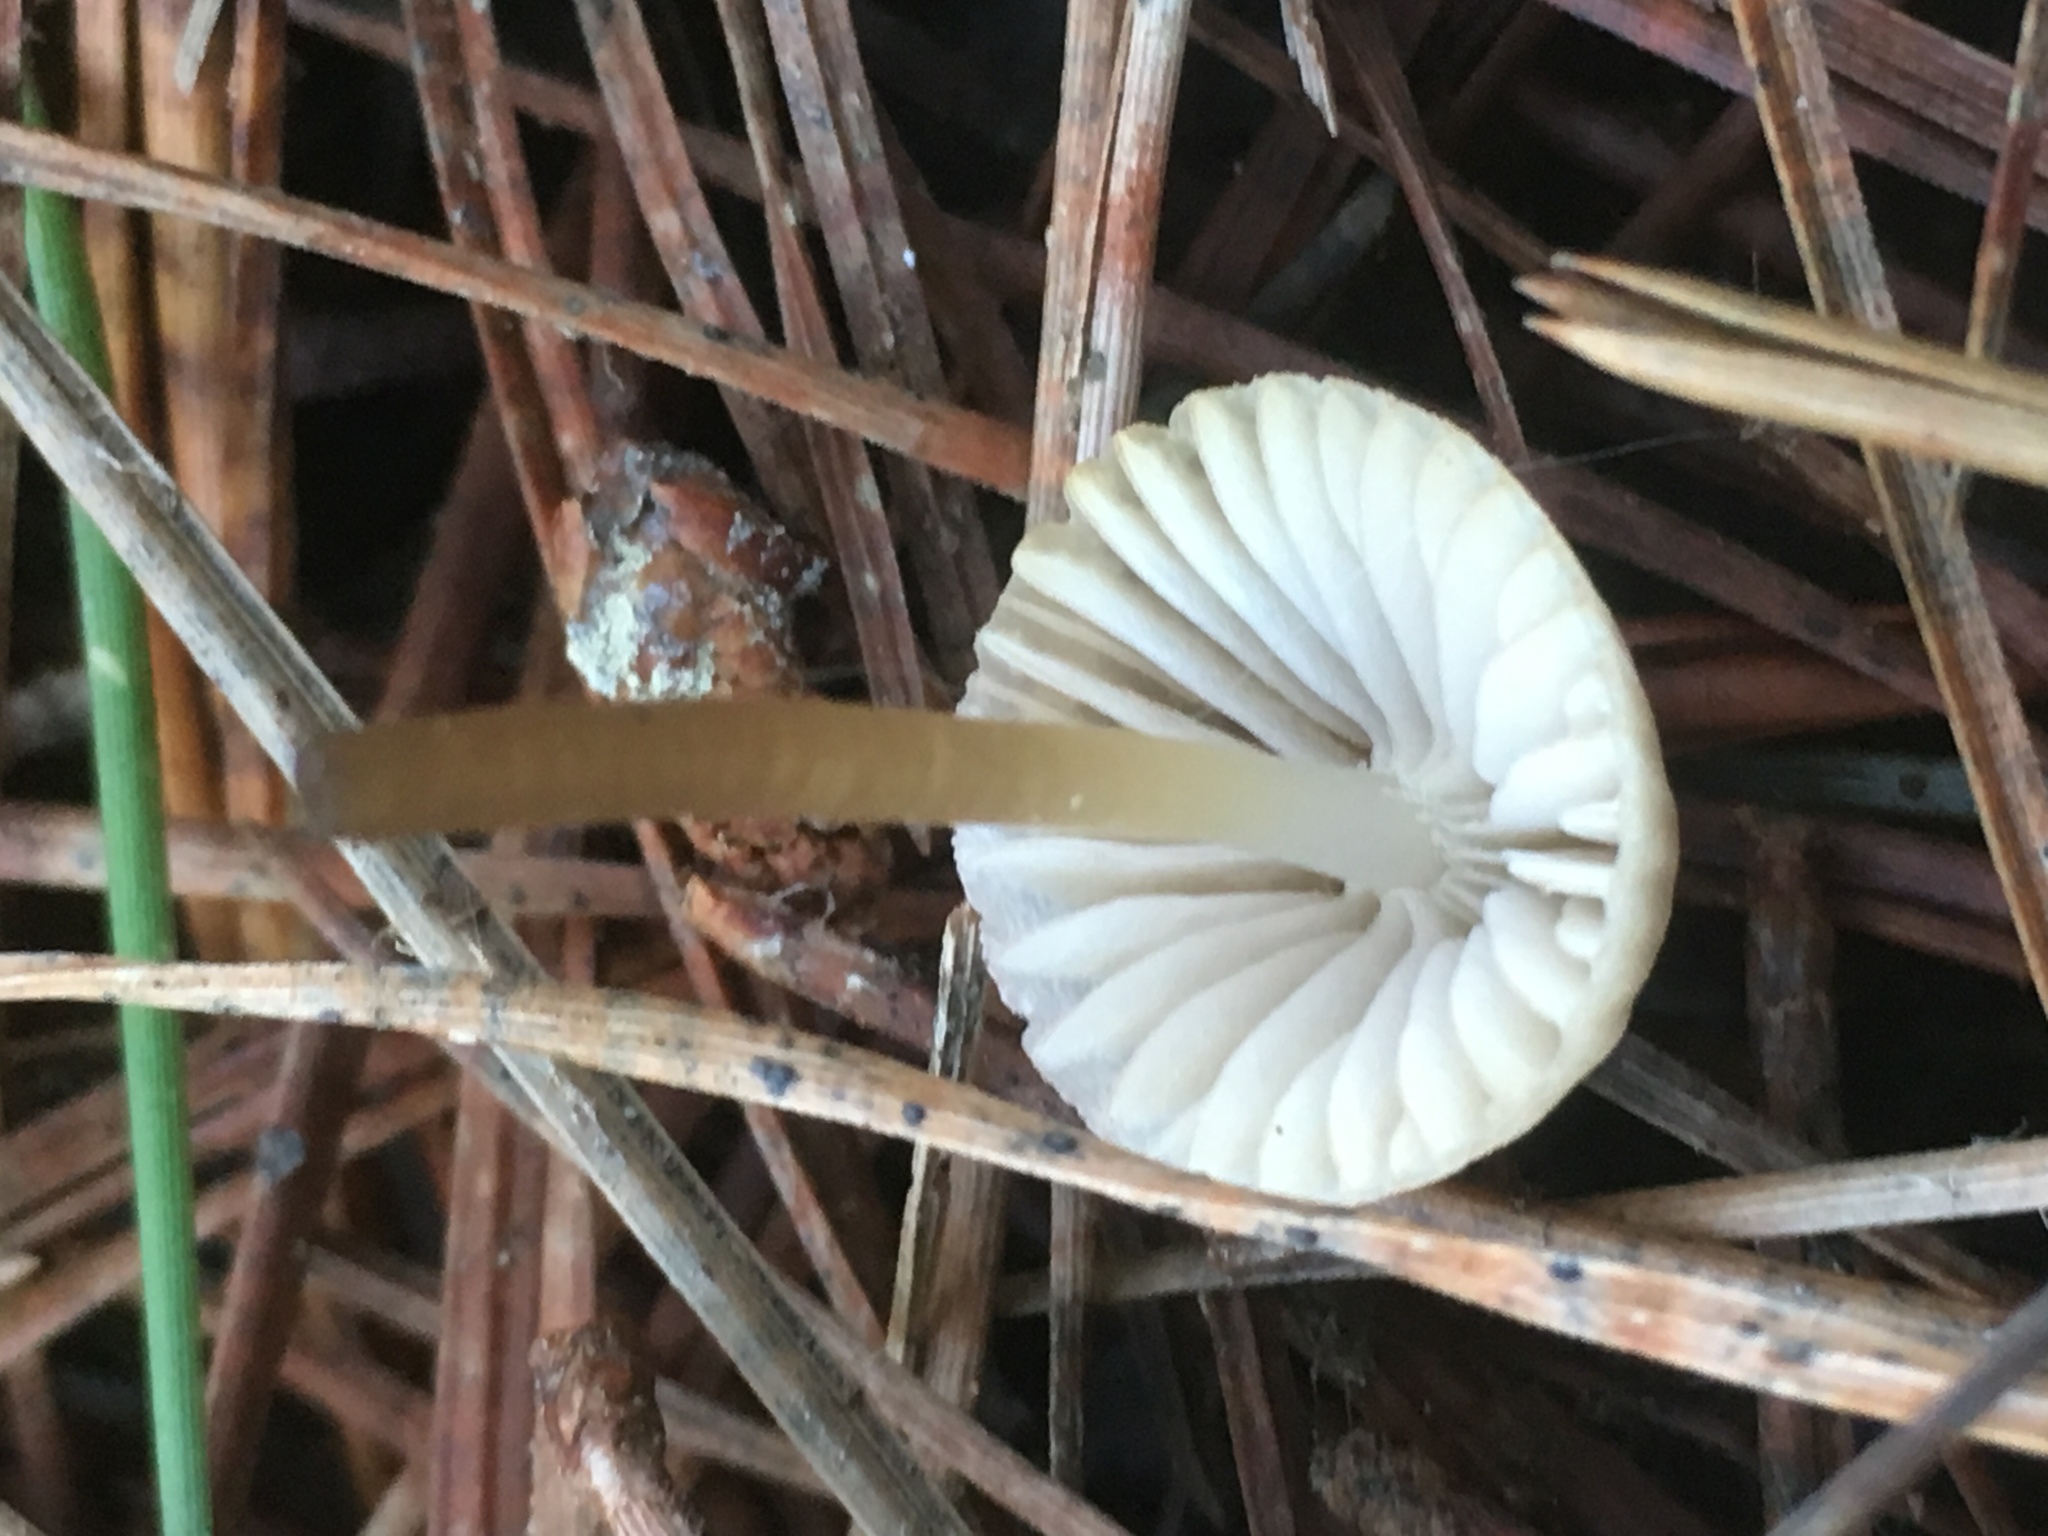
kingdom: Fungi
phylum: Basidiomycota
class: Agaricomycetes
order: Agaricales
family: Mycenaceae
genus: Mycena
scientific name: Mycena capillaripes
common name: Pinkedge bonnet
